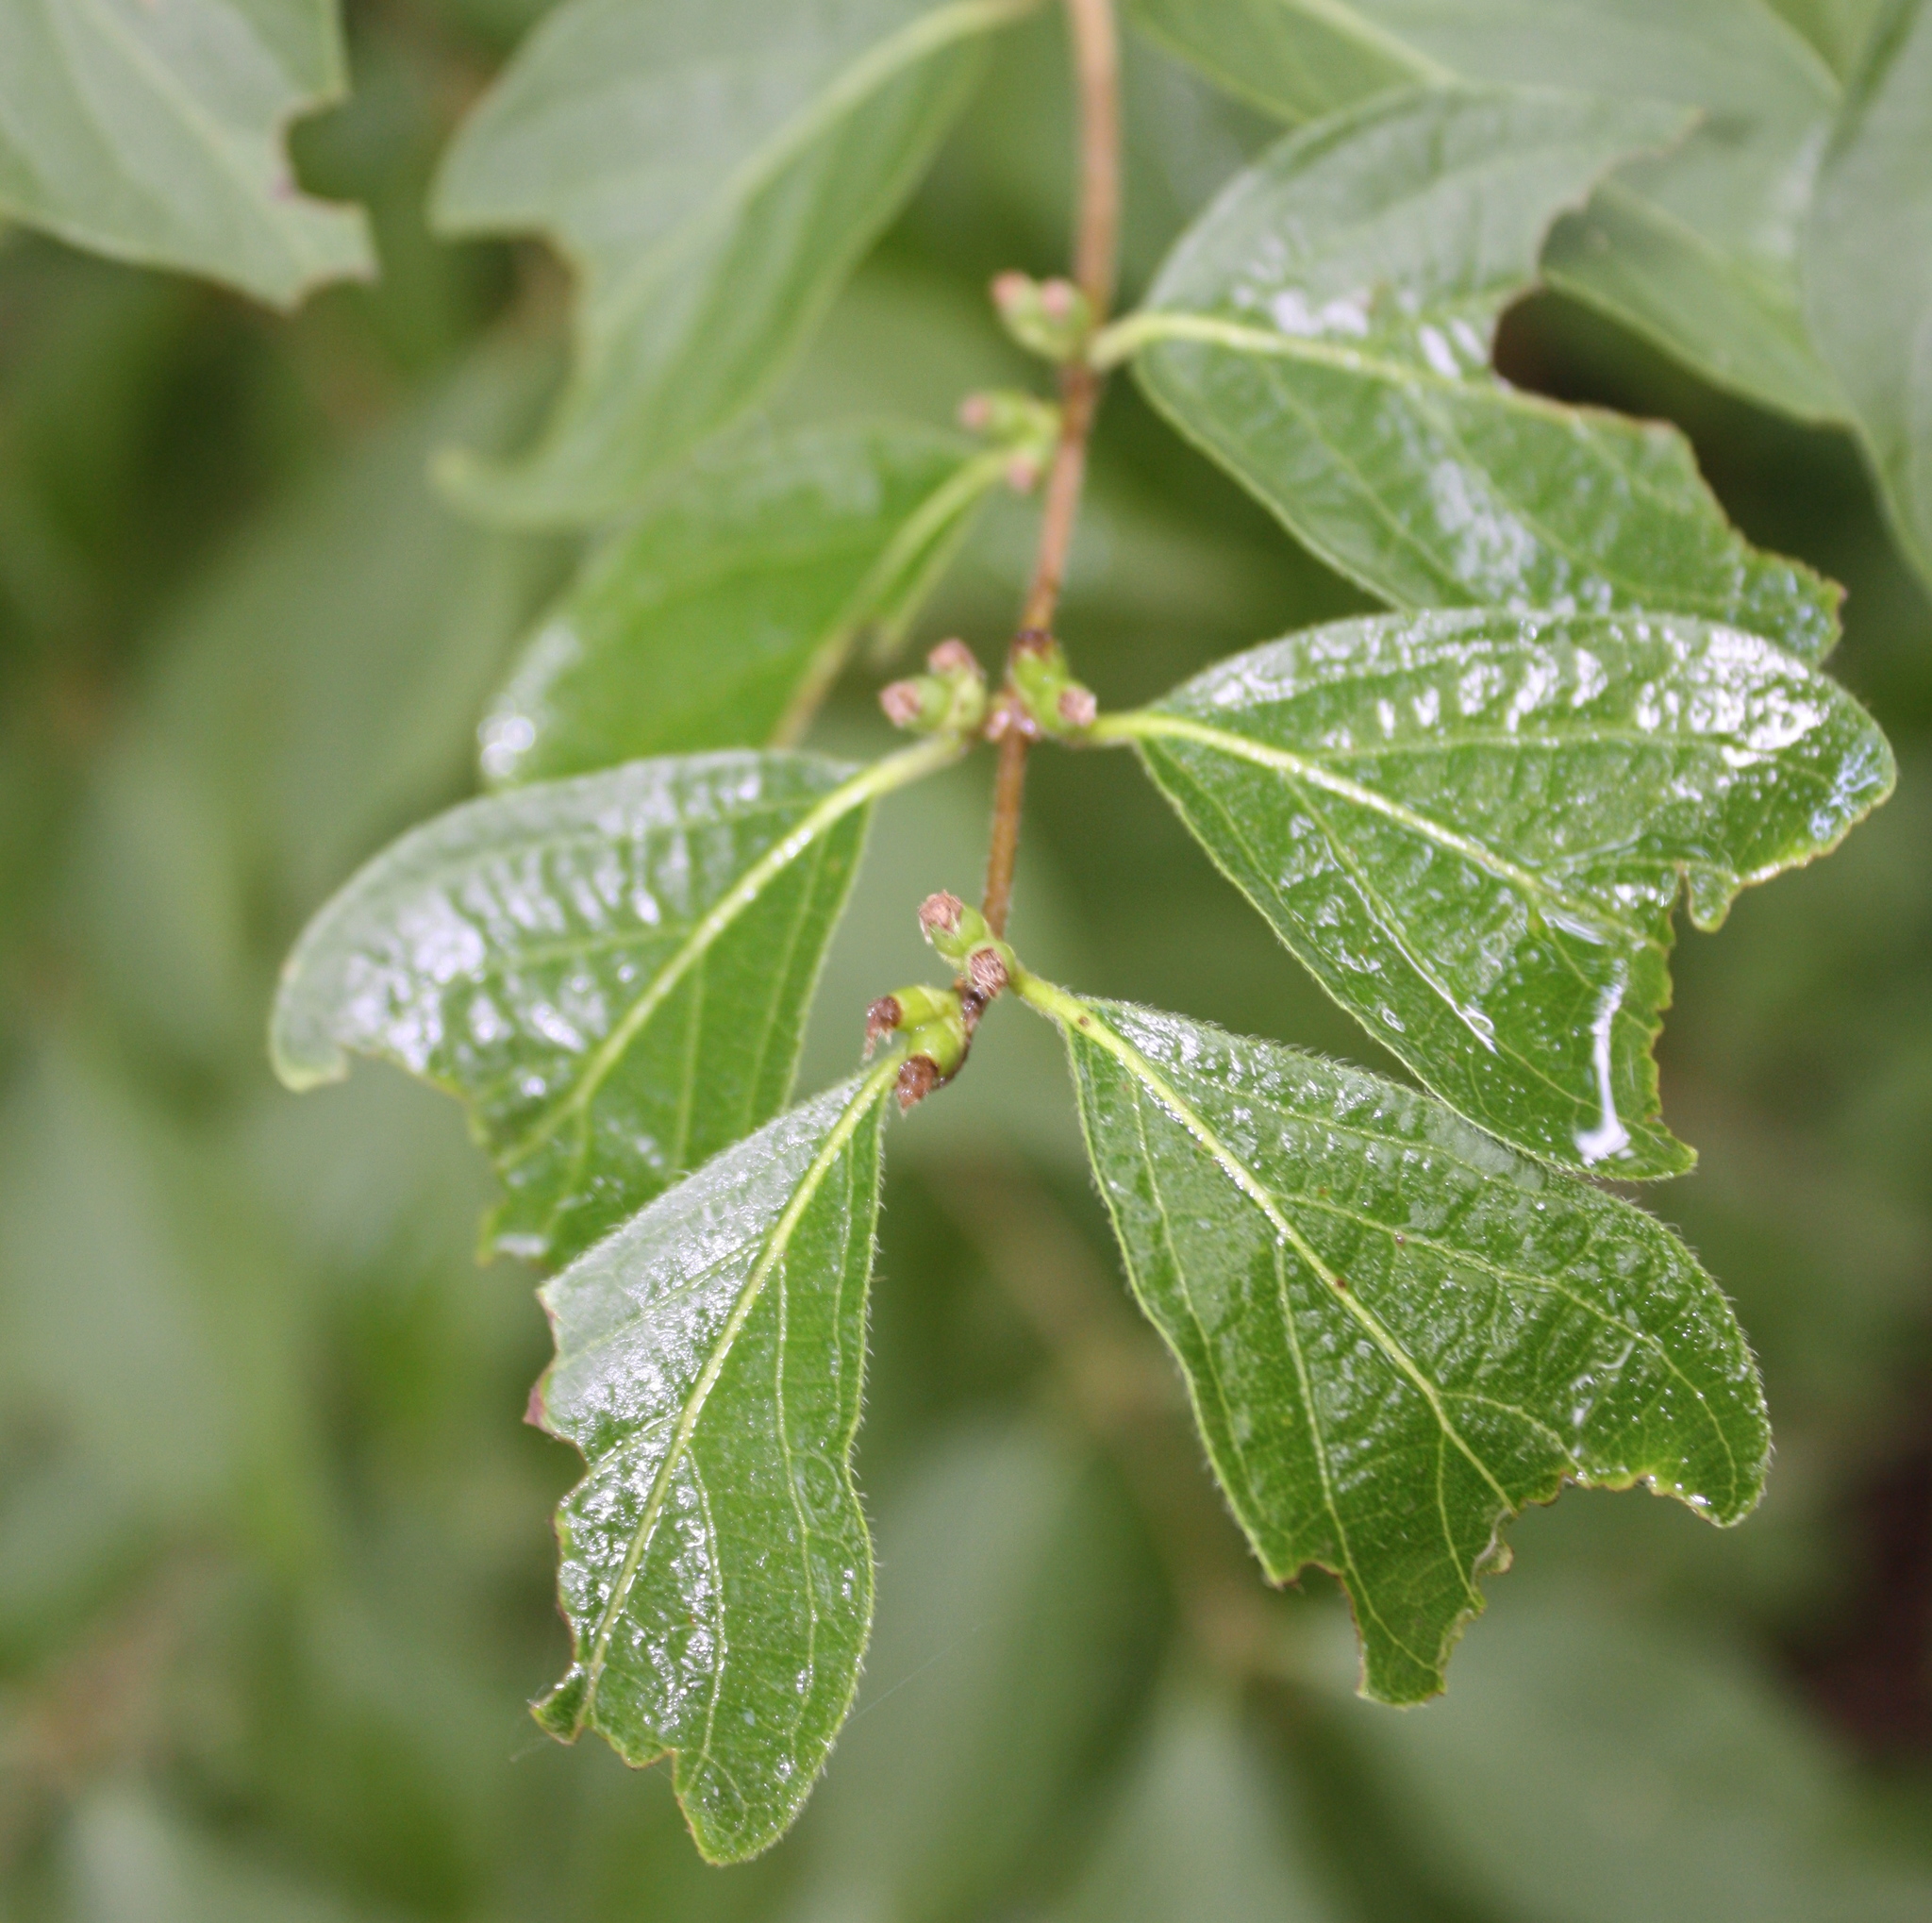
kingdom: Plantae
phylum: Tracheophyta
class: Magnoliopsida
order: Dipsacales
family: Caprifoliaceae
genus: Lonicera
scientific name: Lonicera maackii
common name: Amur honeysuckle
